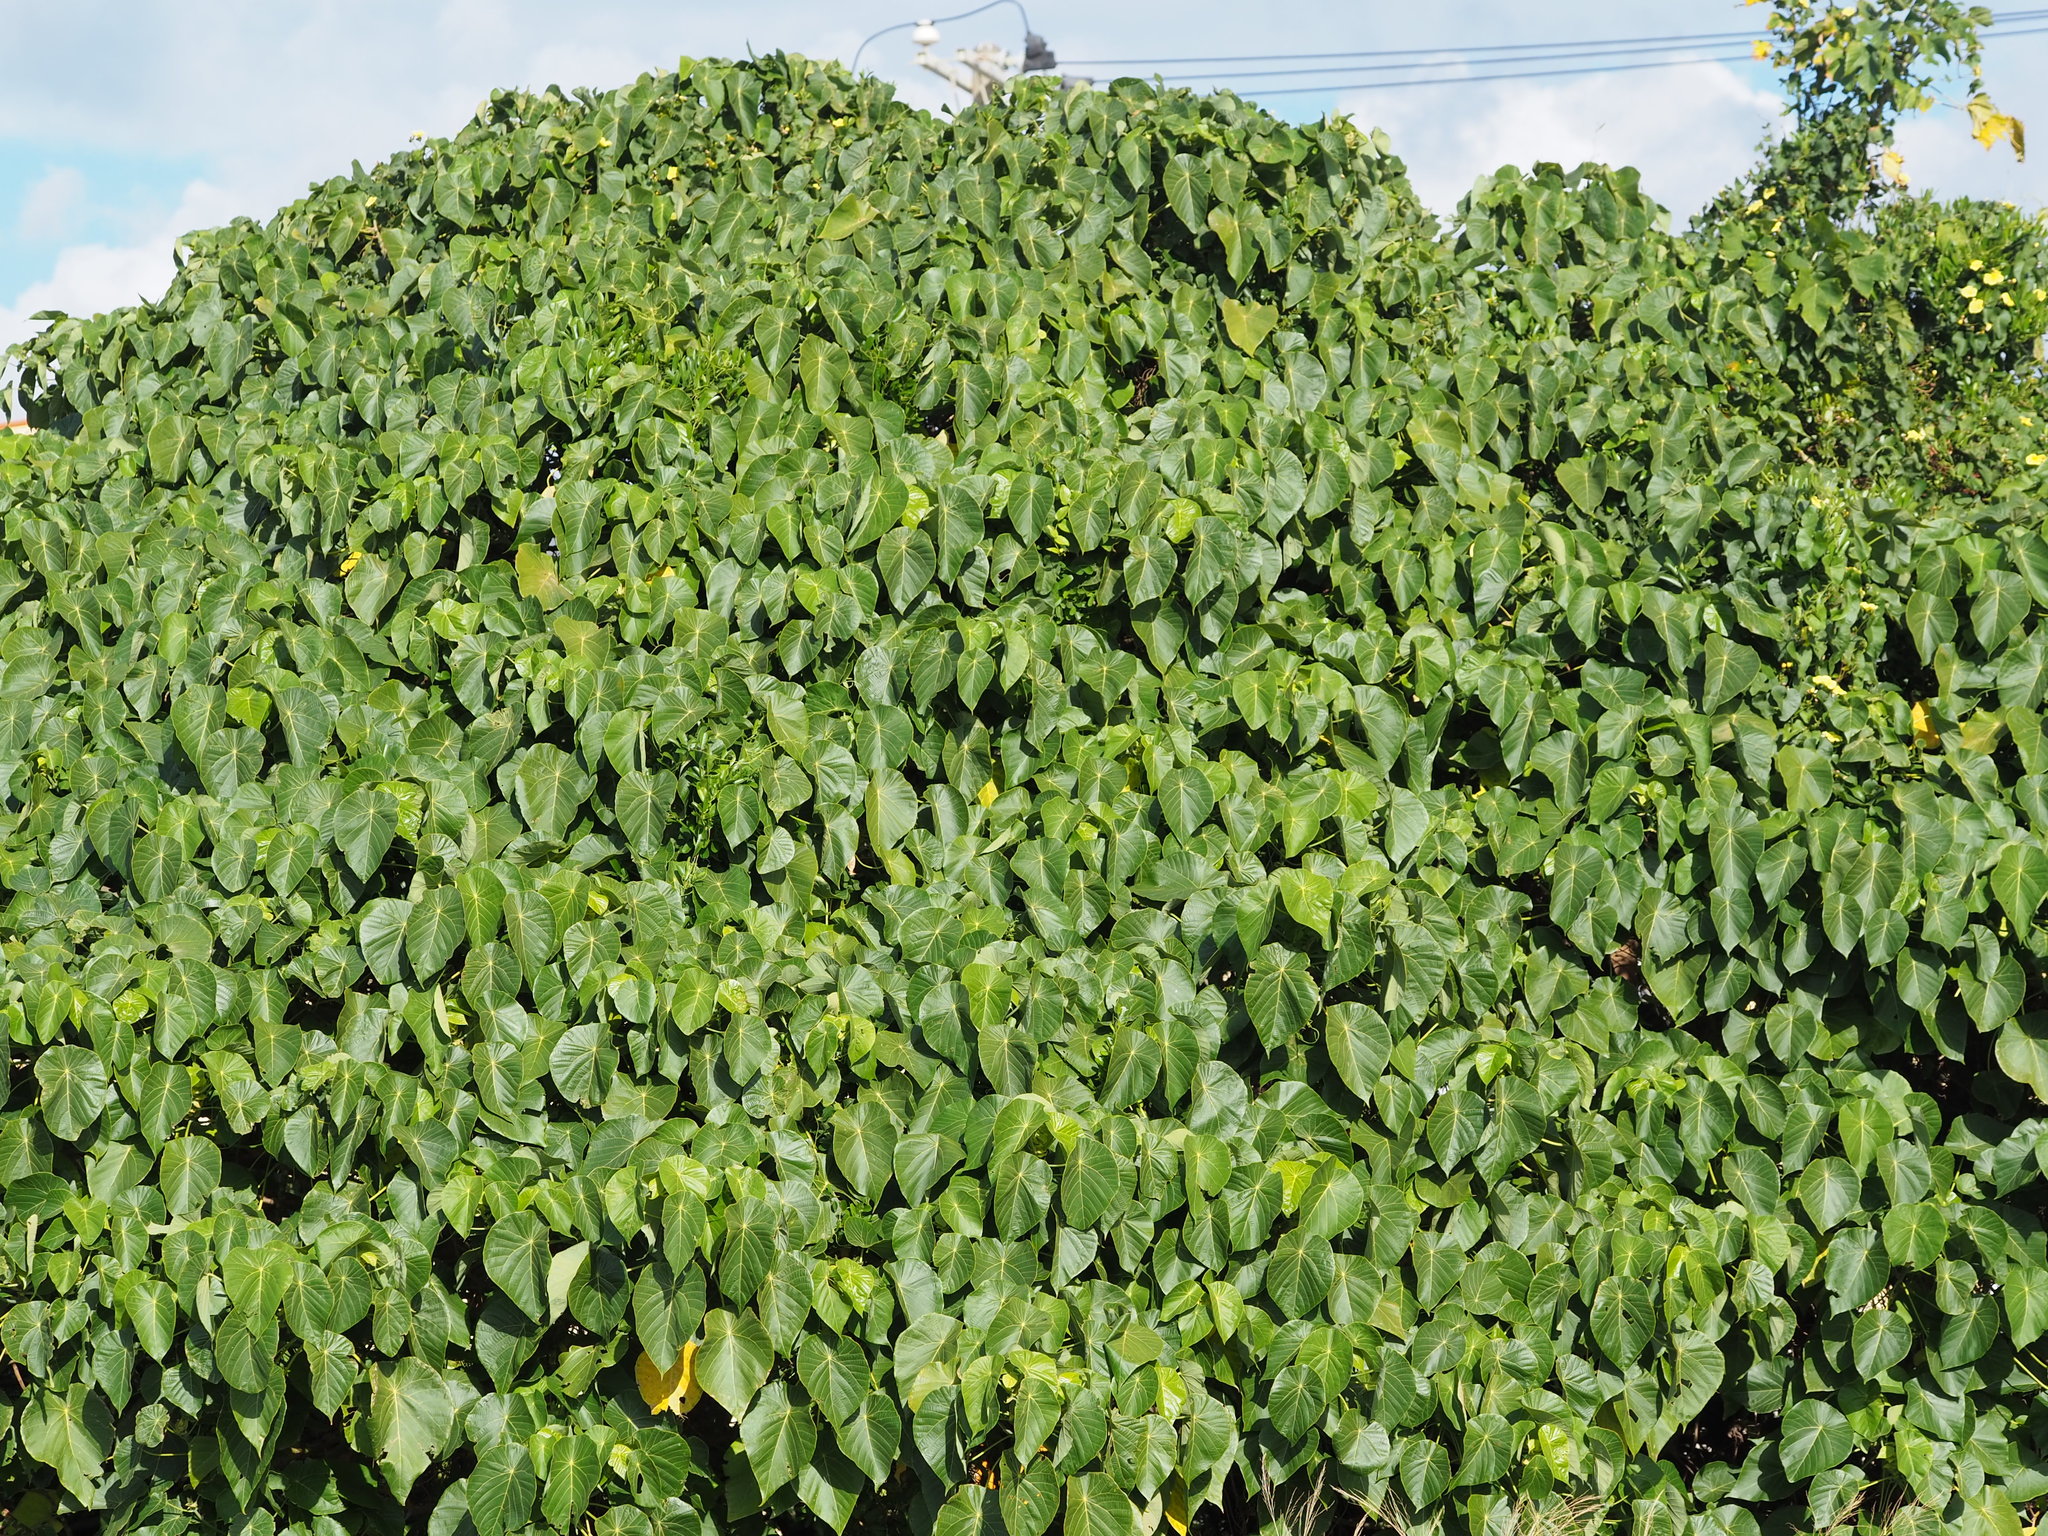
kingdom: Plantae
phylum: Tracheophyta
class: Magnoliopsida
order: Malpighiales
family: Euphorbiaceae
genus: Macaranga
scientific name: Macaranga tanarius
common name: Parasol leaf tree
